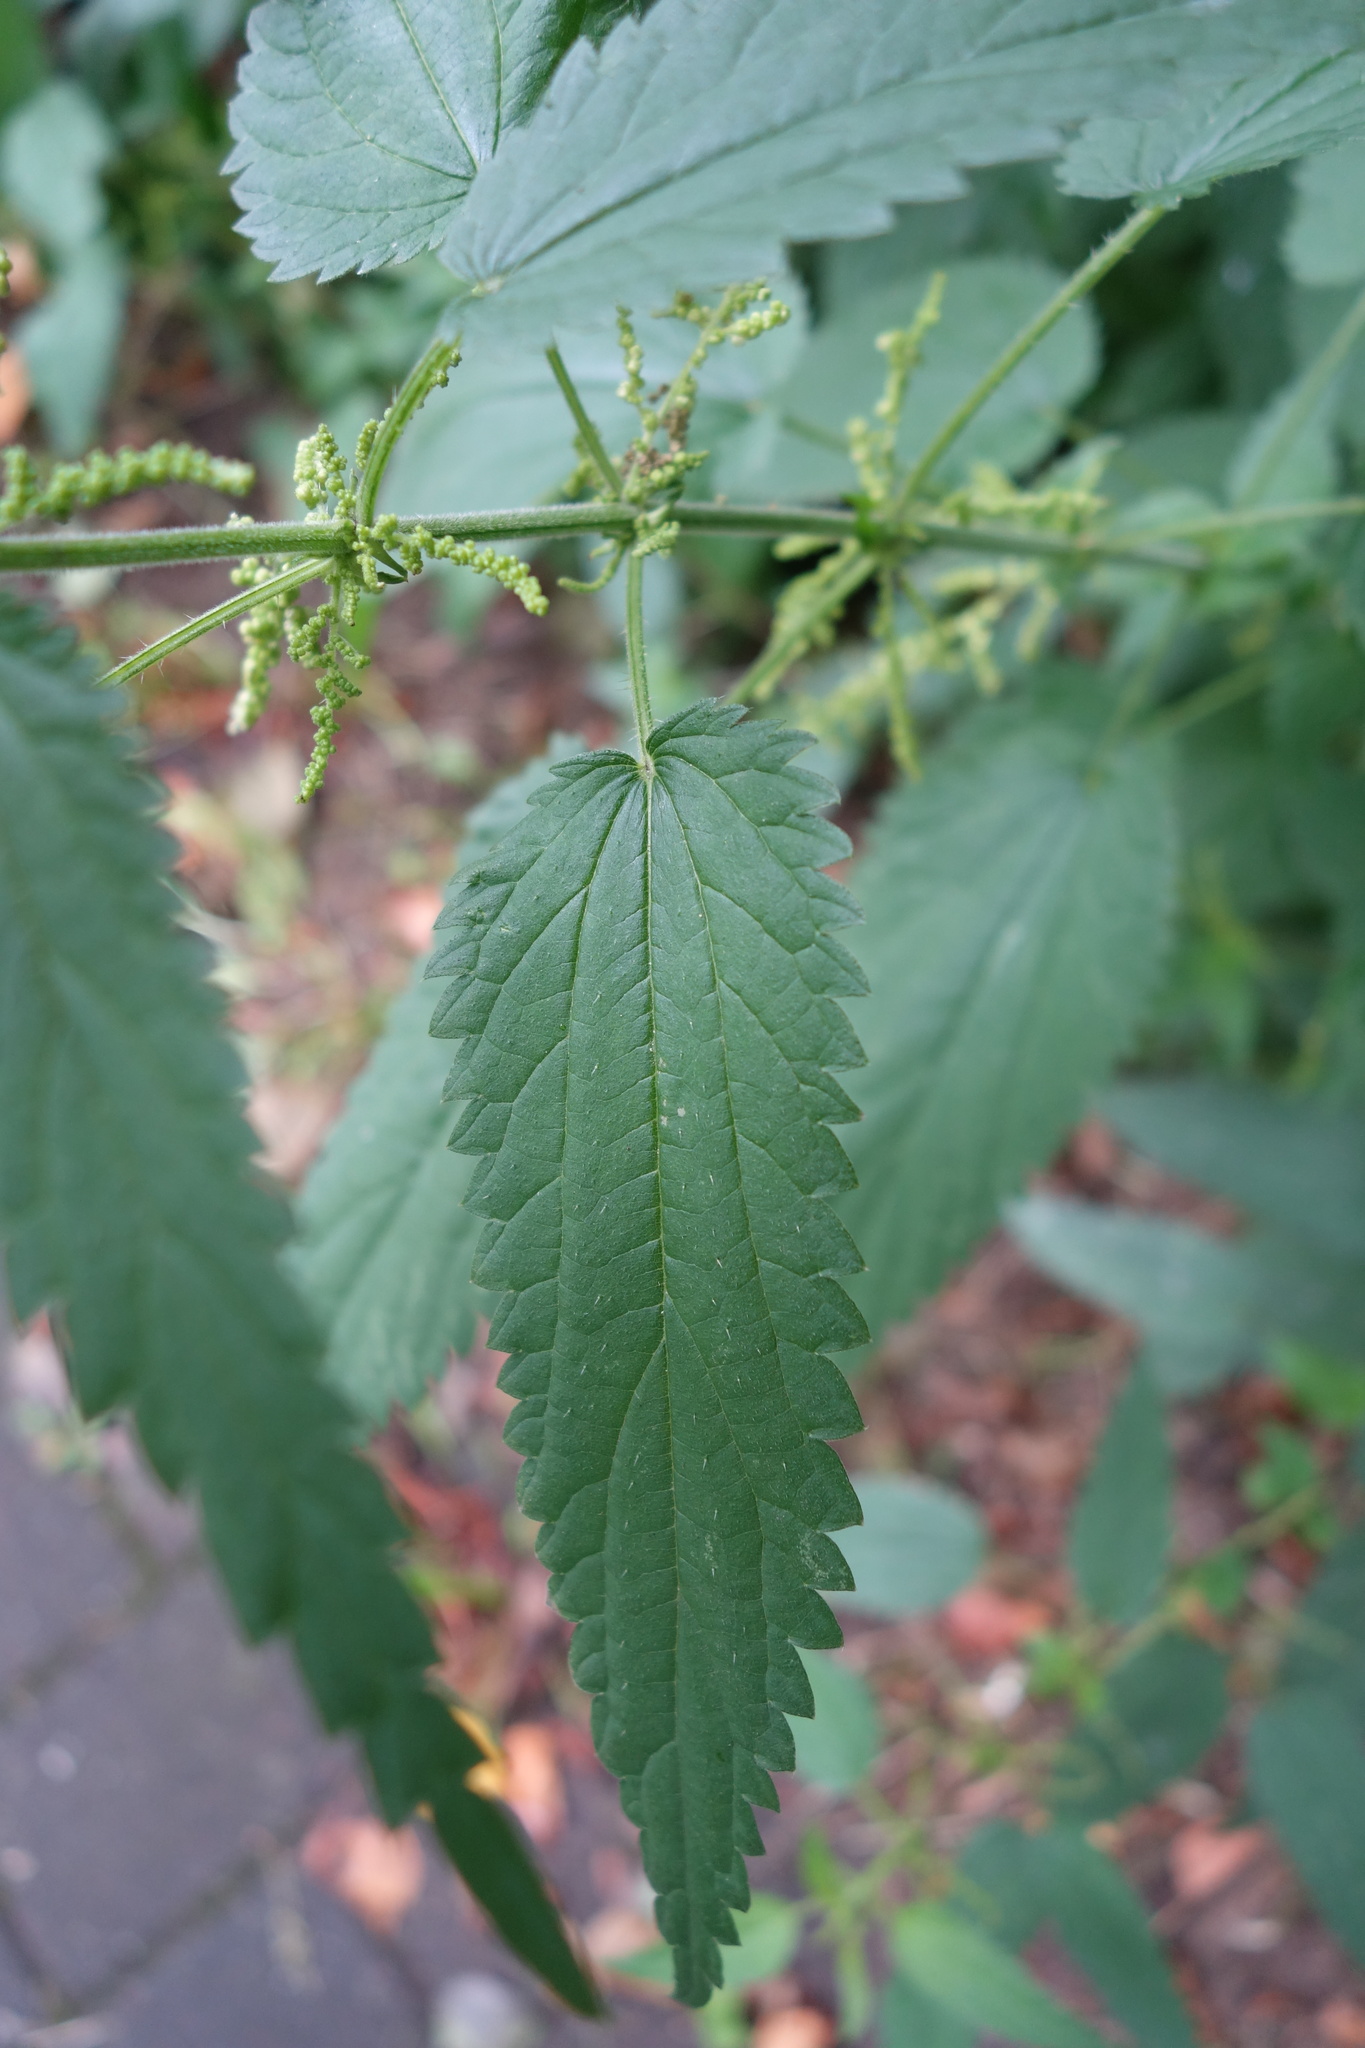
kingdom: Plantae
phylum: Tracheophyta
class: Magnoliopsida
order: Rosales
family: Urticaceae
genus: Urtica
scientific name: Urtica galeopsifolia
